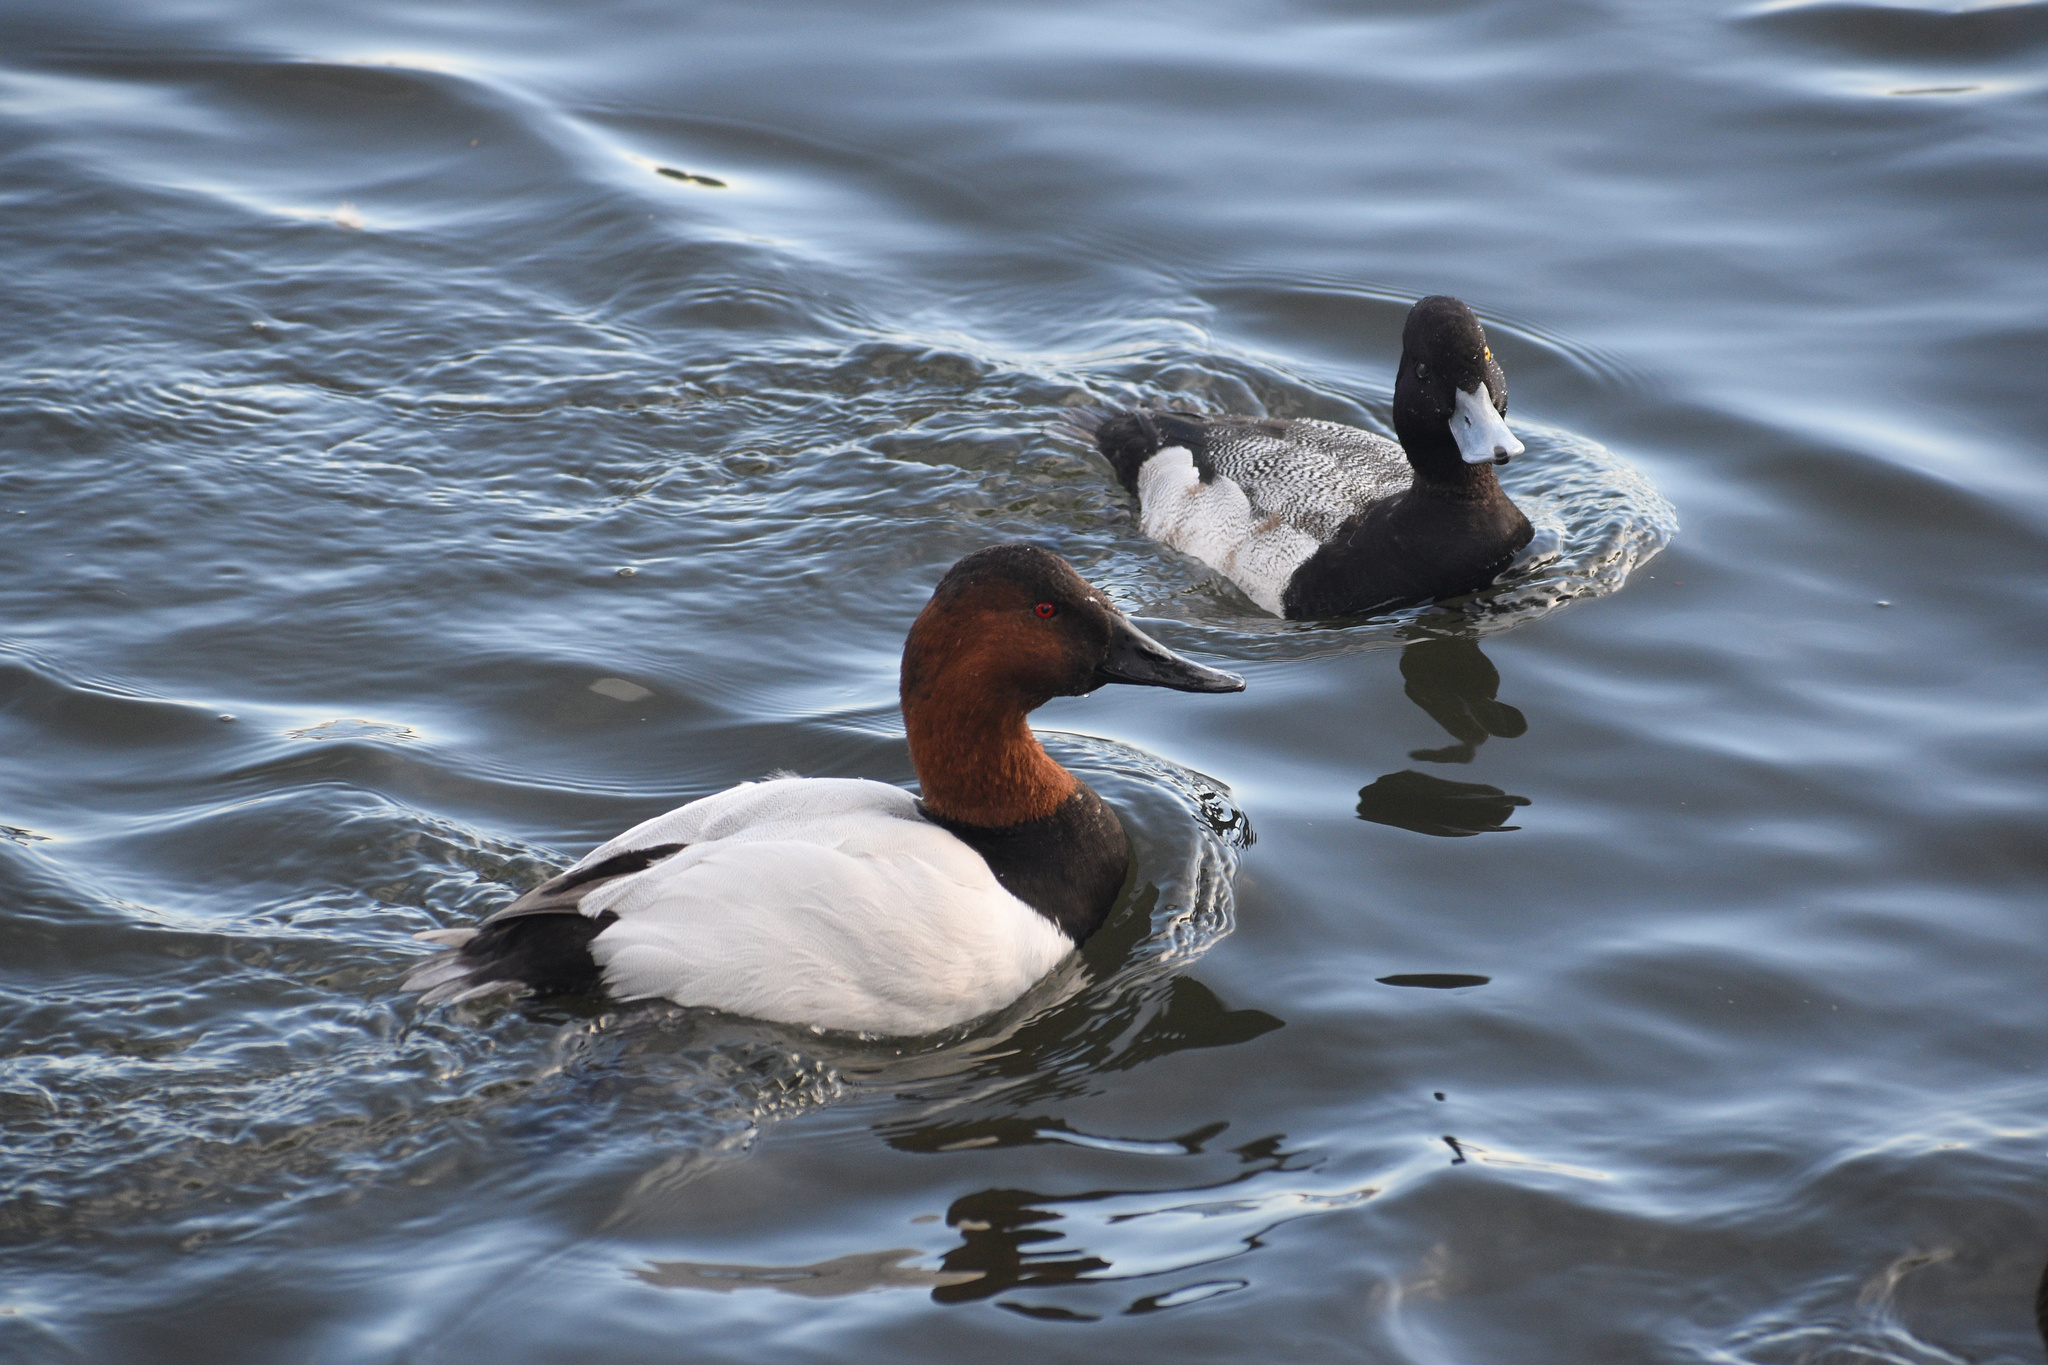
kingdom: Animalia
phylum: Chordata
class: Aves
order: Anseriformes
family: Anatidae
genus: Aythya
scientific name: Aythya valisineria
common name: Canvasback
